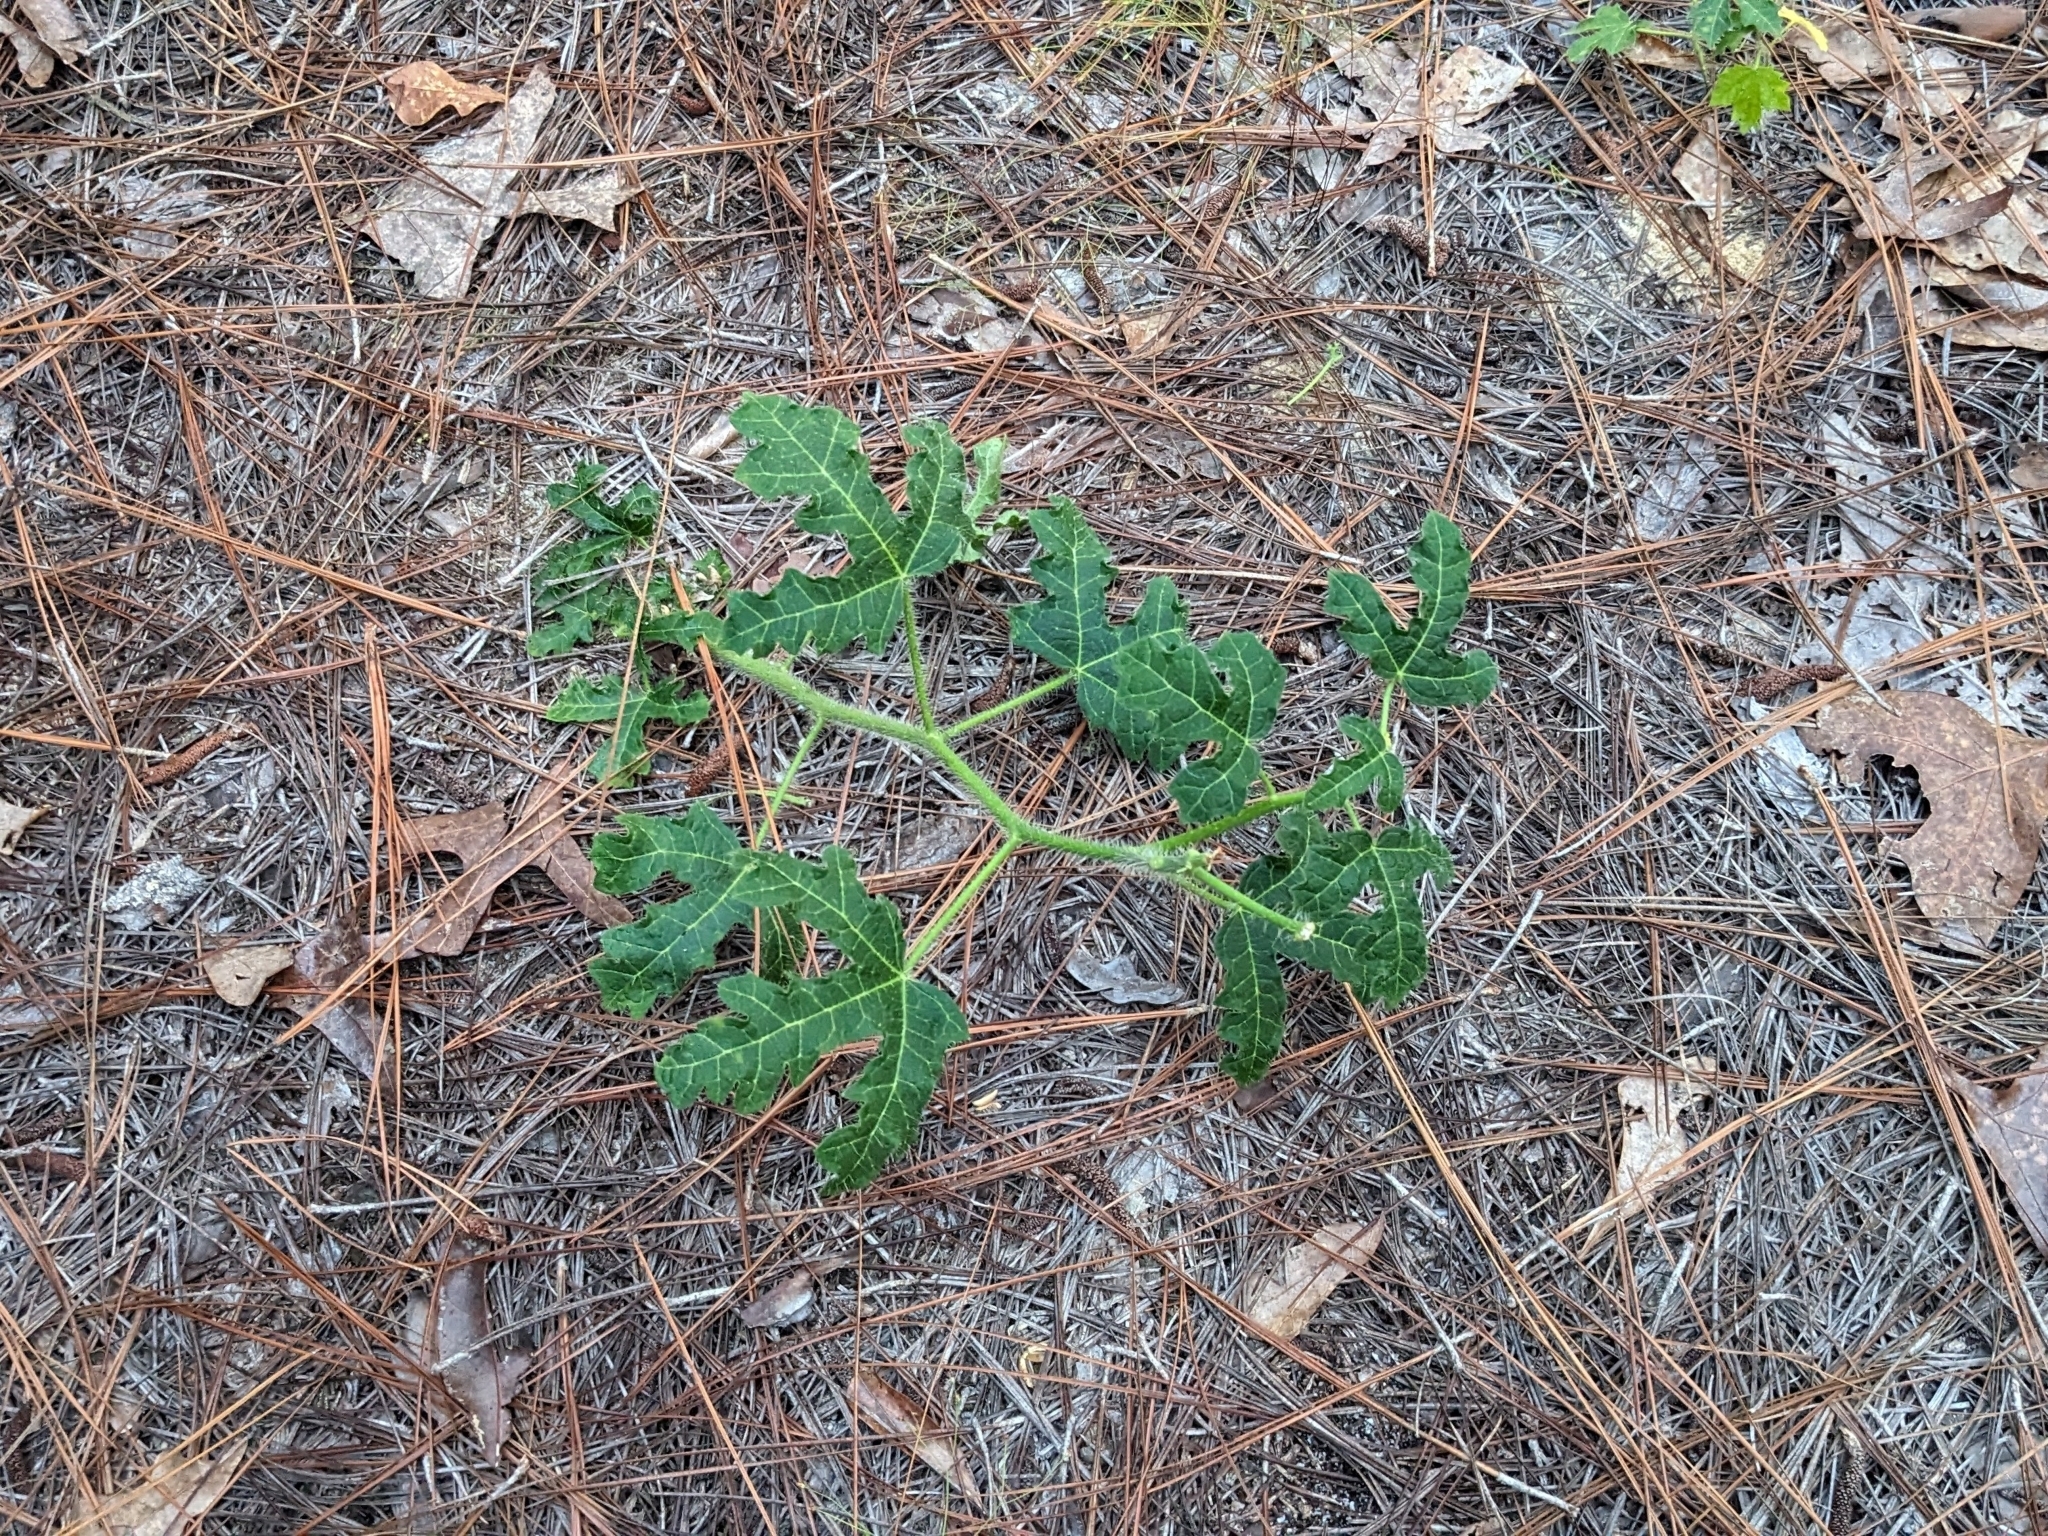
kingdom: Plantae
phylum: Tracheophyta
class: Magnoliopsida
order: Malpighiales
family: Euphorbiaceae
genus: Cnidoscolus
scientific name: Cnidoscolus stimulosus
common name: Bull-nettle
